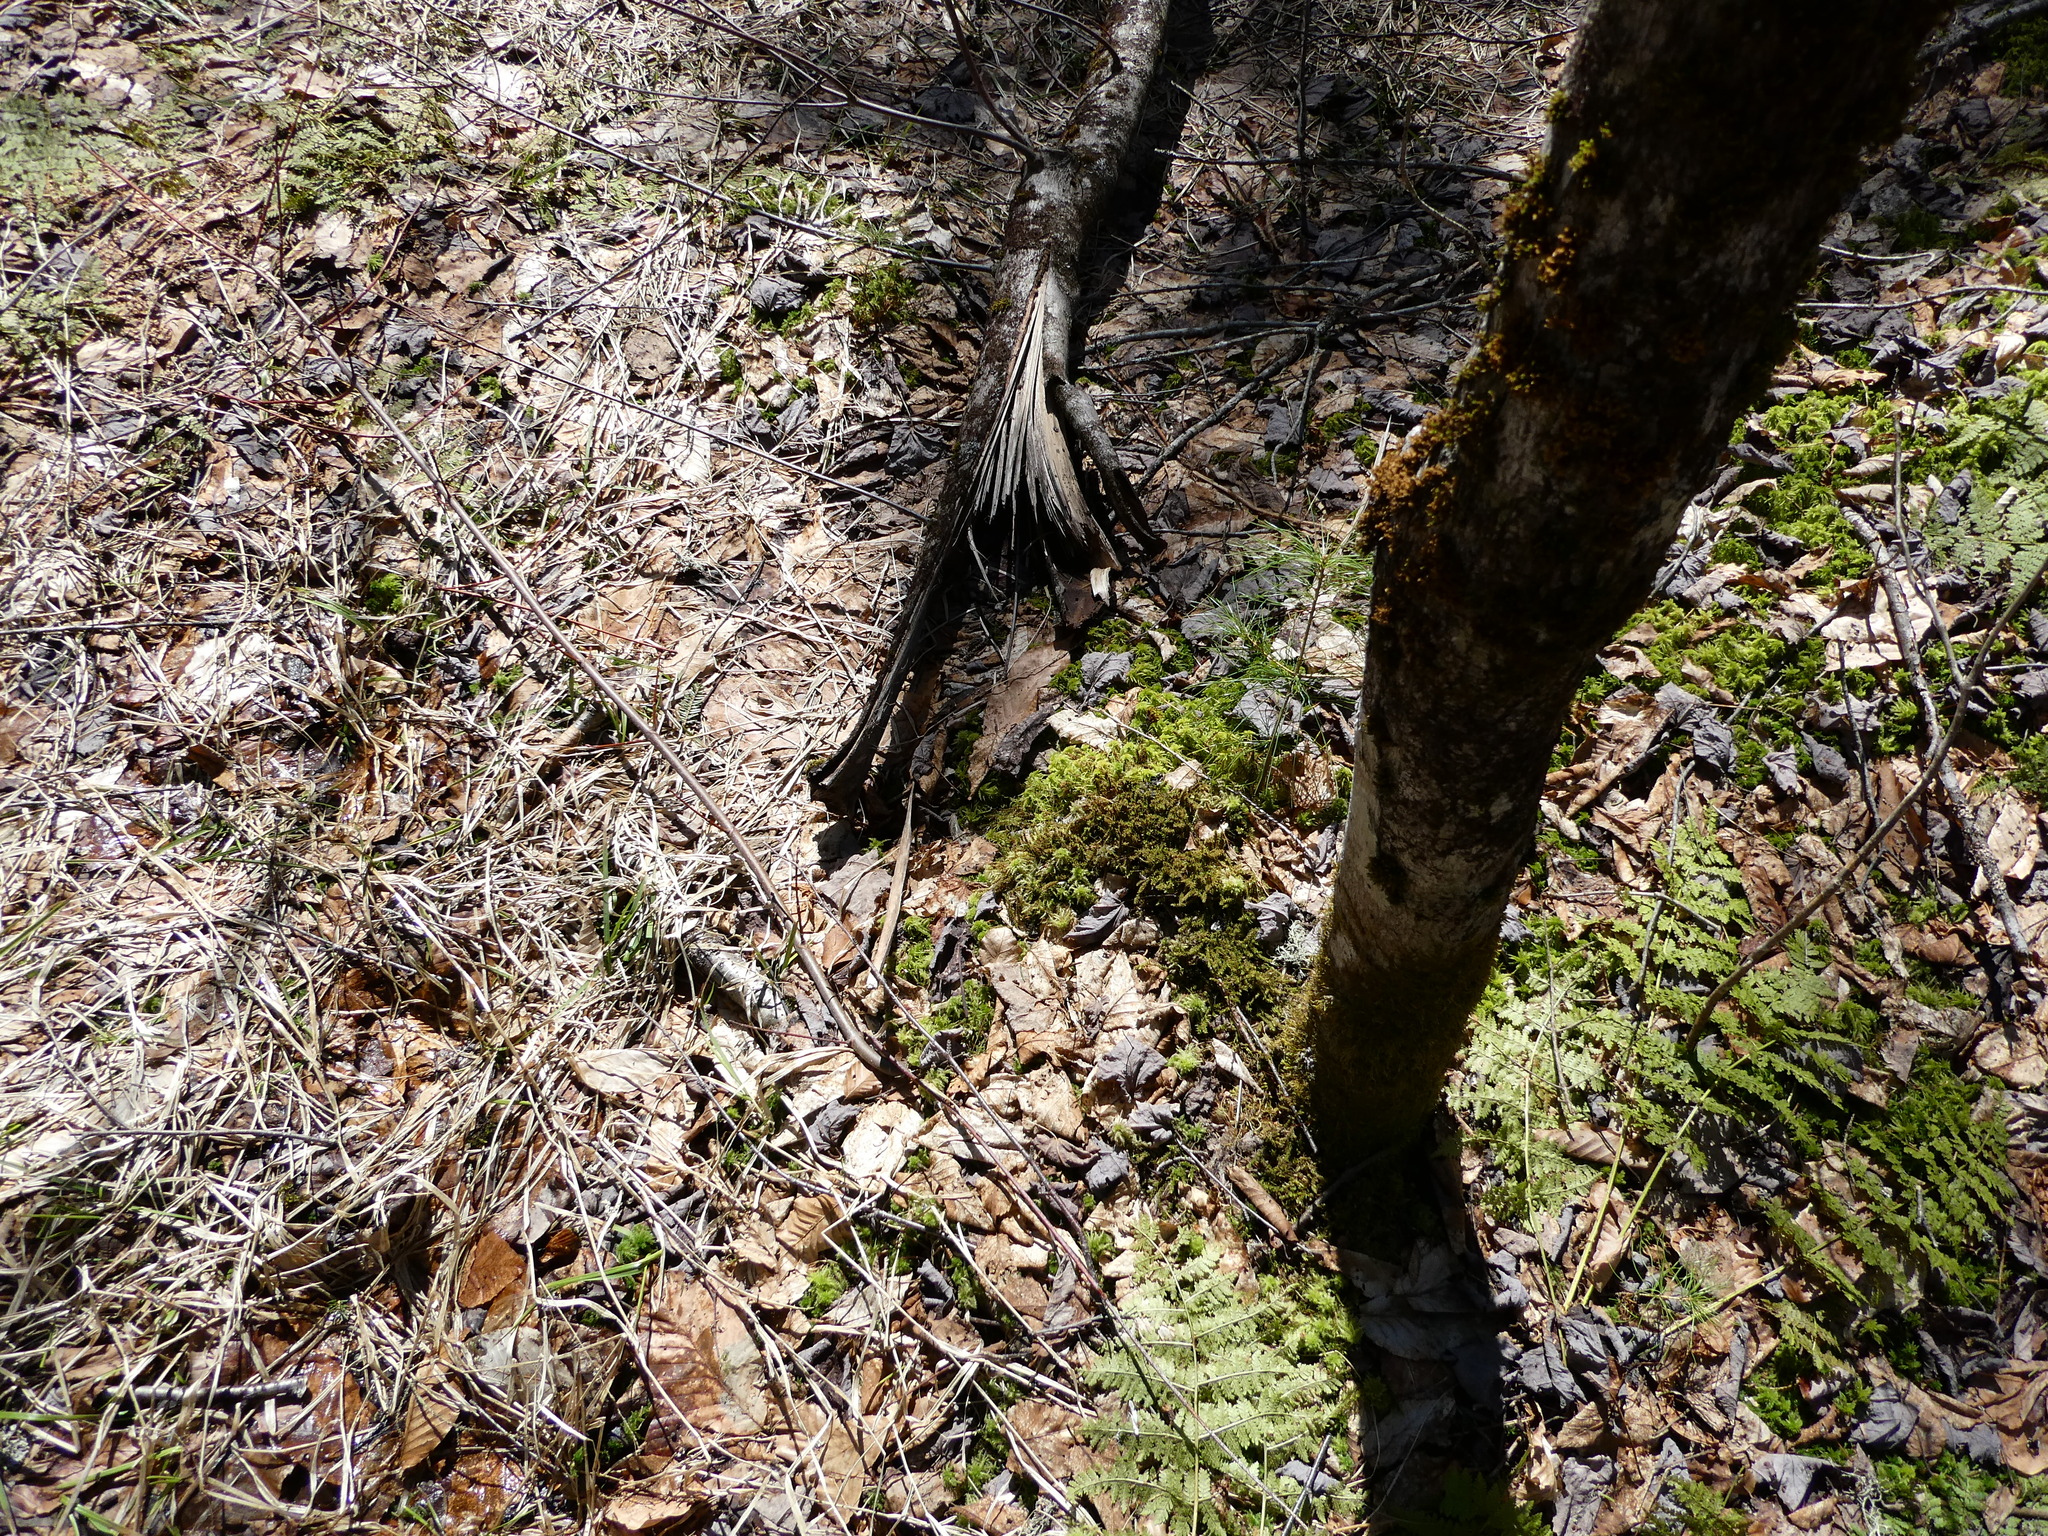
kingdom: Plantae
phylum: Bryophyta
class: Sphagnopsida
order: Sphagnales
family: Sphagnaceae
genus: Sphagnum
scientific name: Sphagnum squarrosum
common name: Shaggy peat moss
